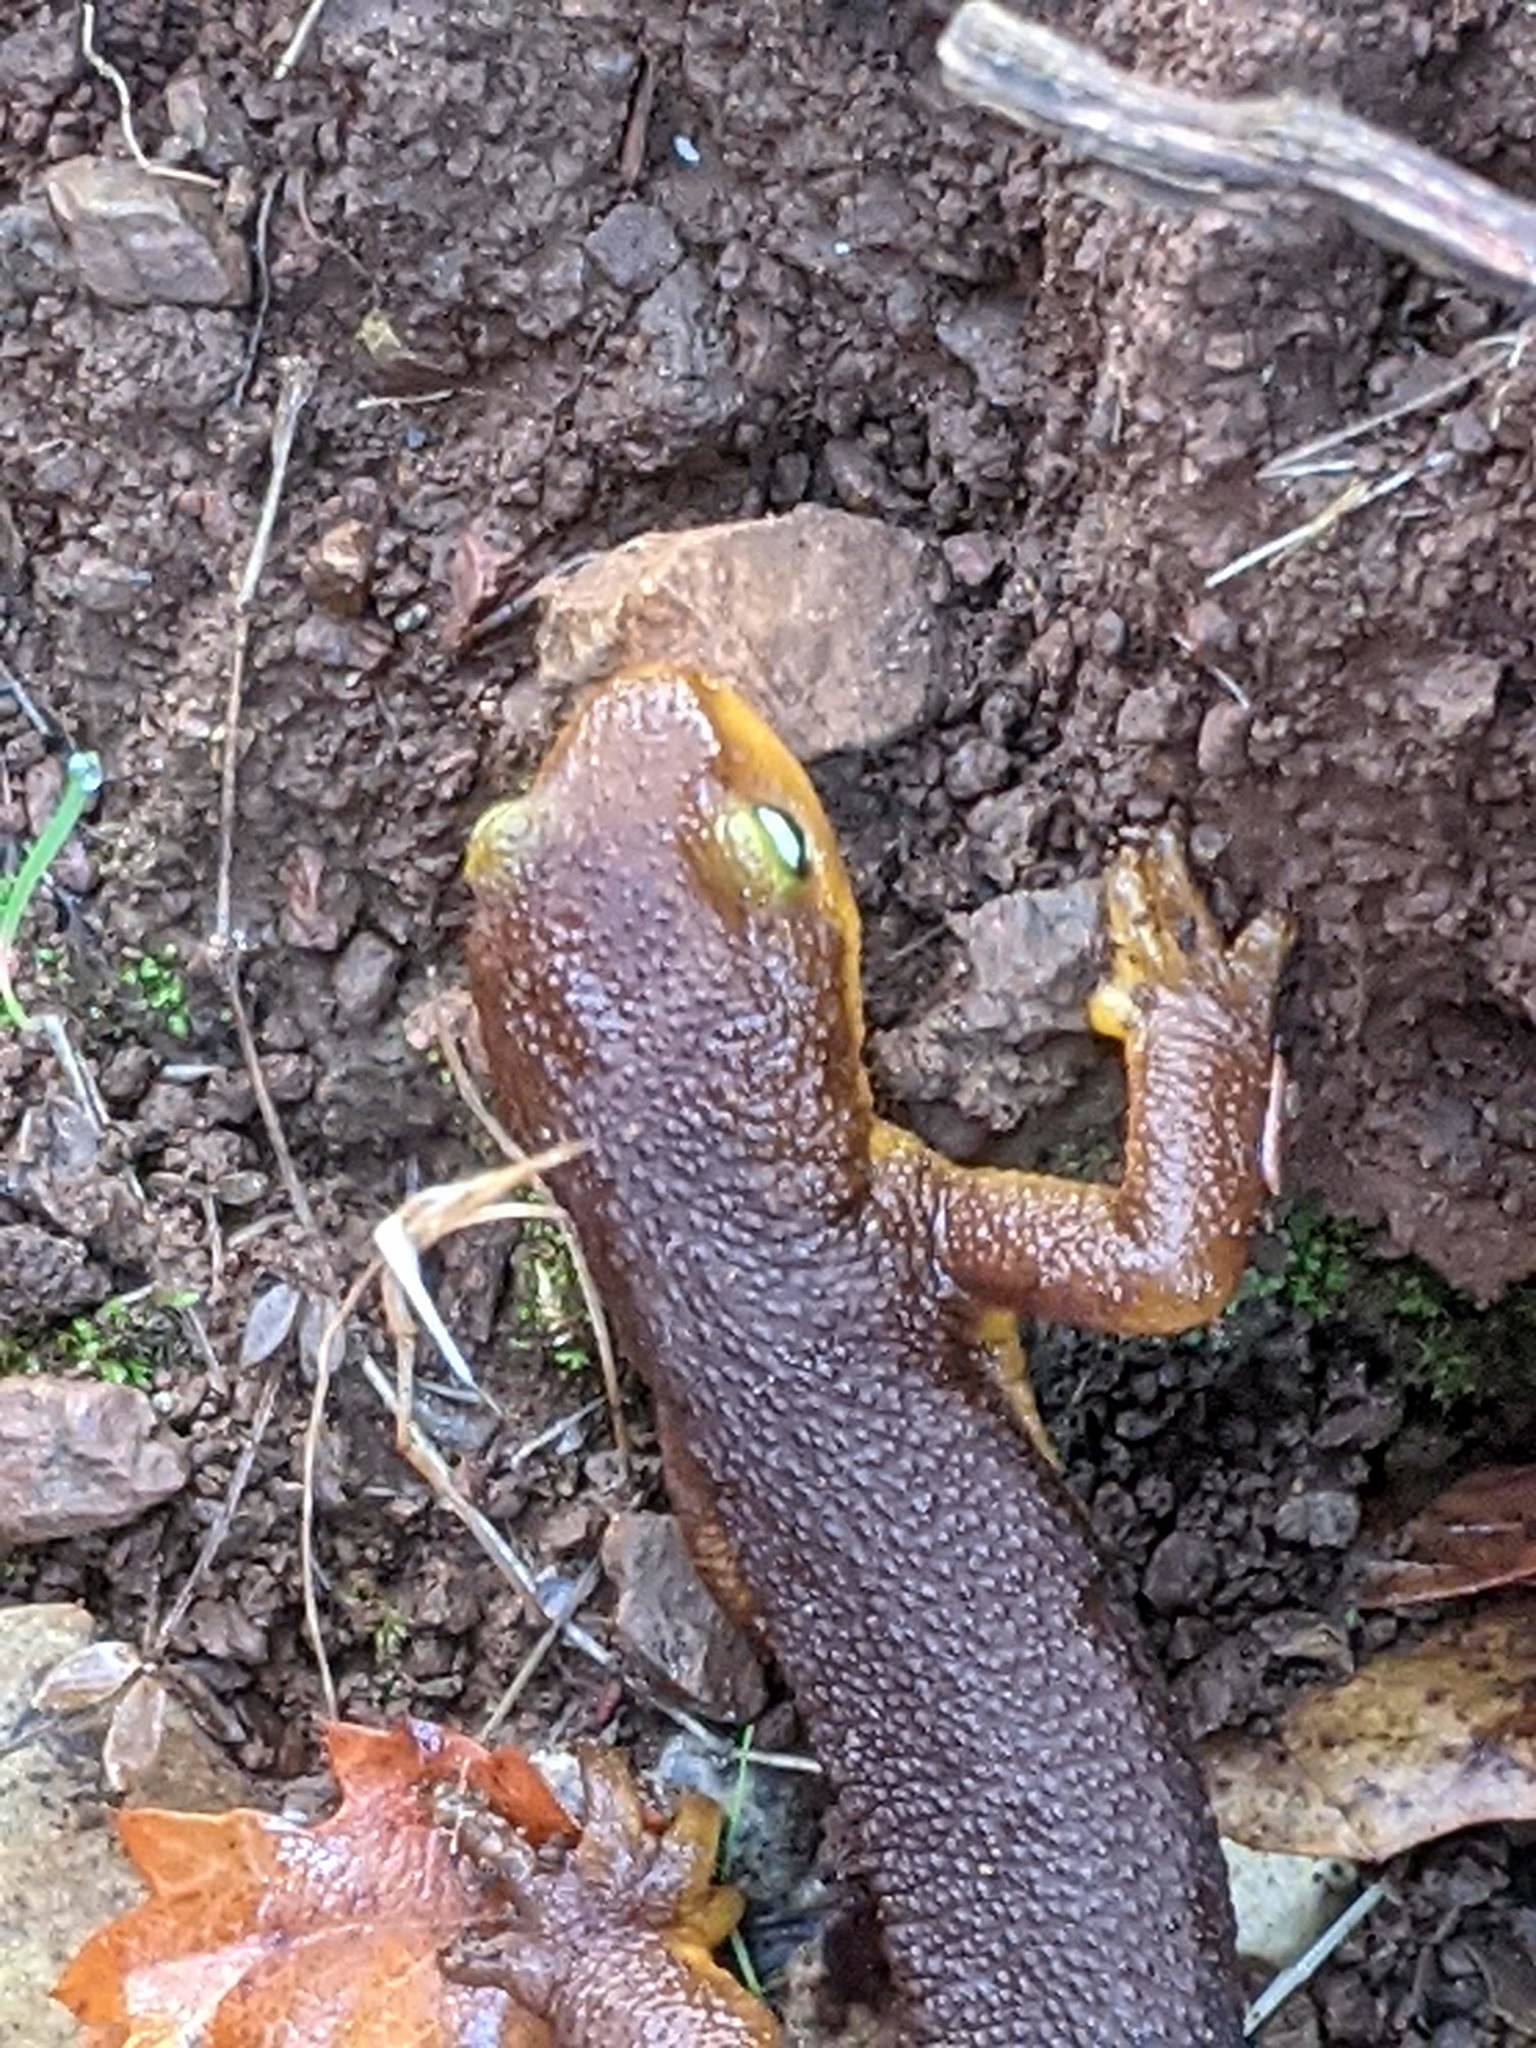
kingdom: Animalia
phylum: Chordata
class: Amphibia
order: Caudata
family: Salamandridae
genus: Taricha
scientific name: Taricha torosa
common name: California newt
